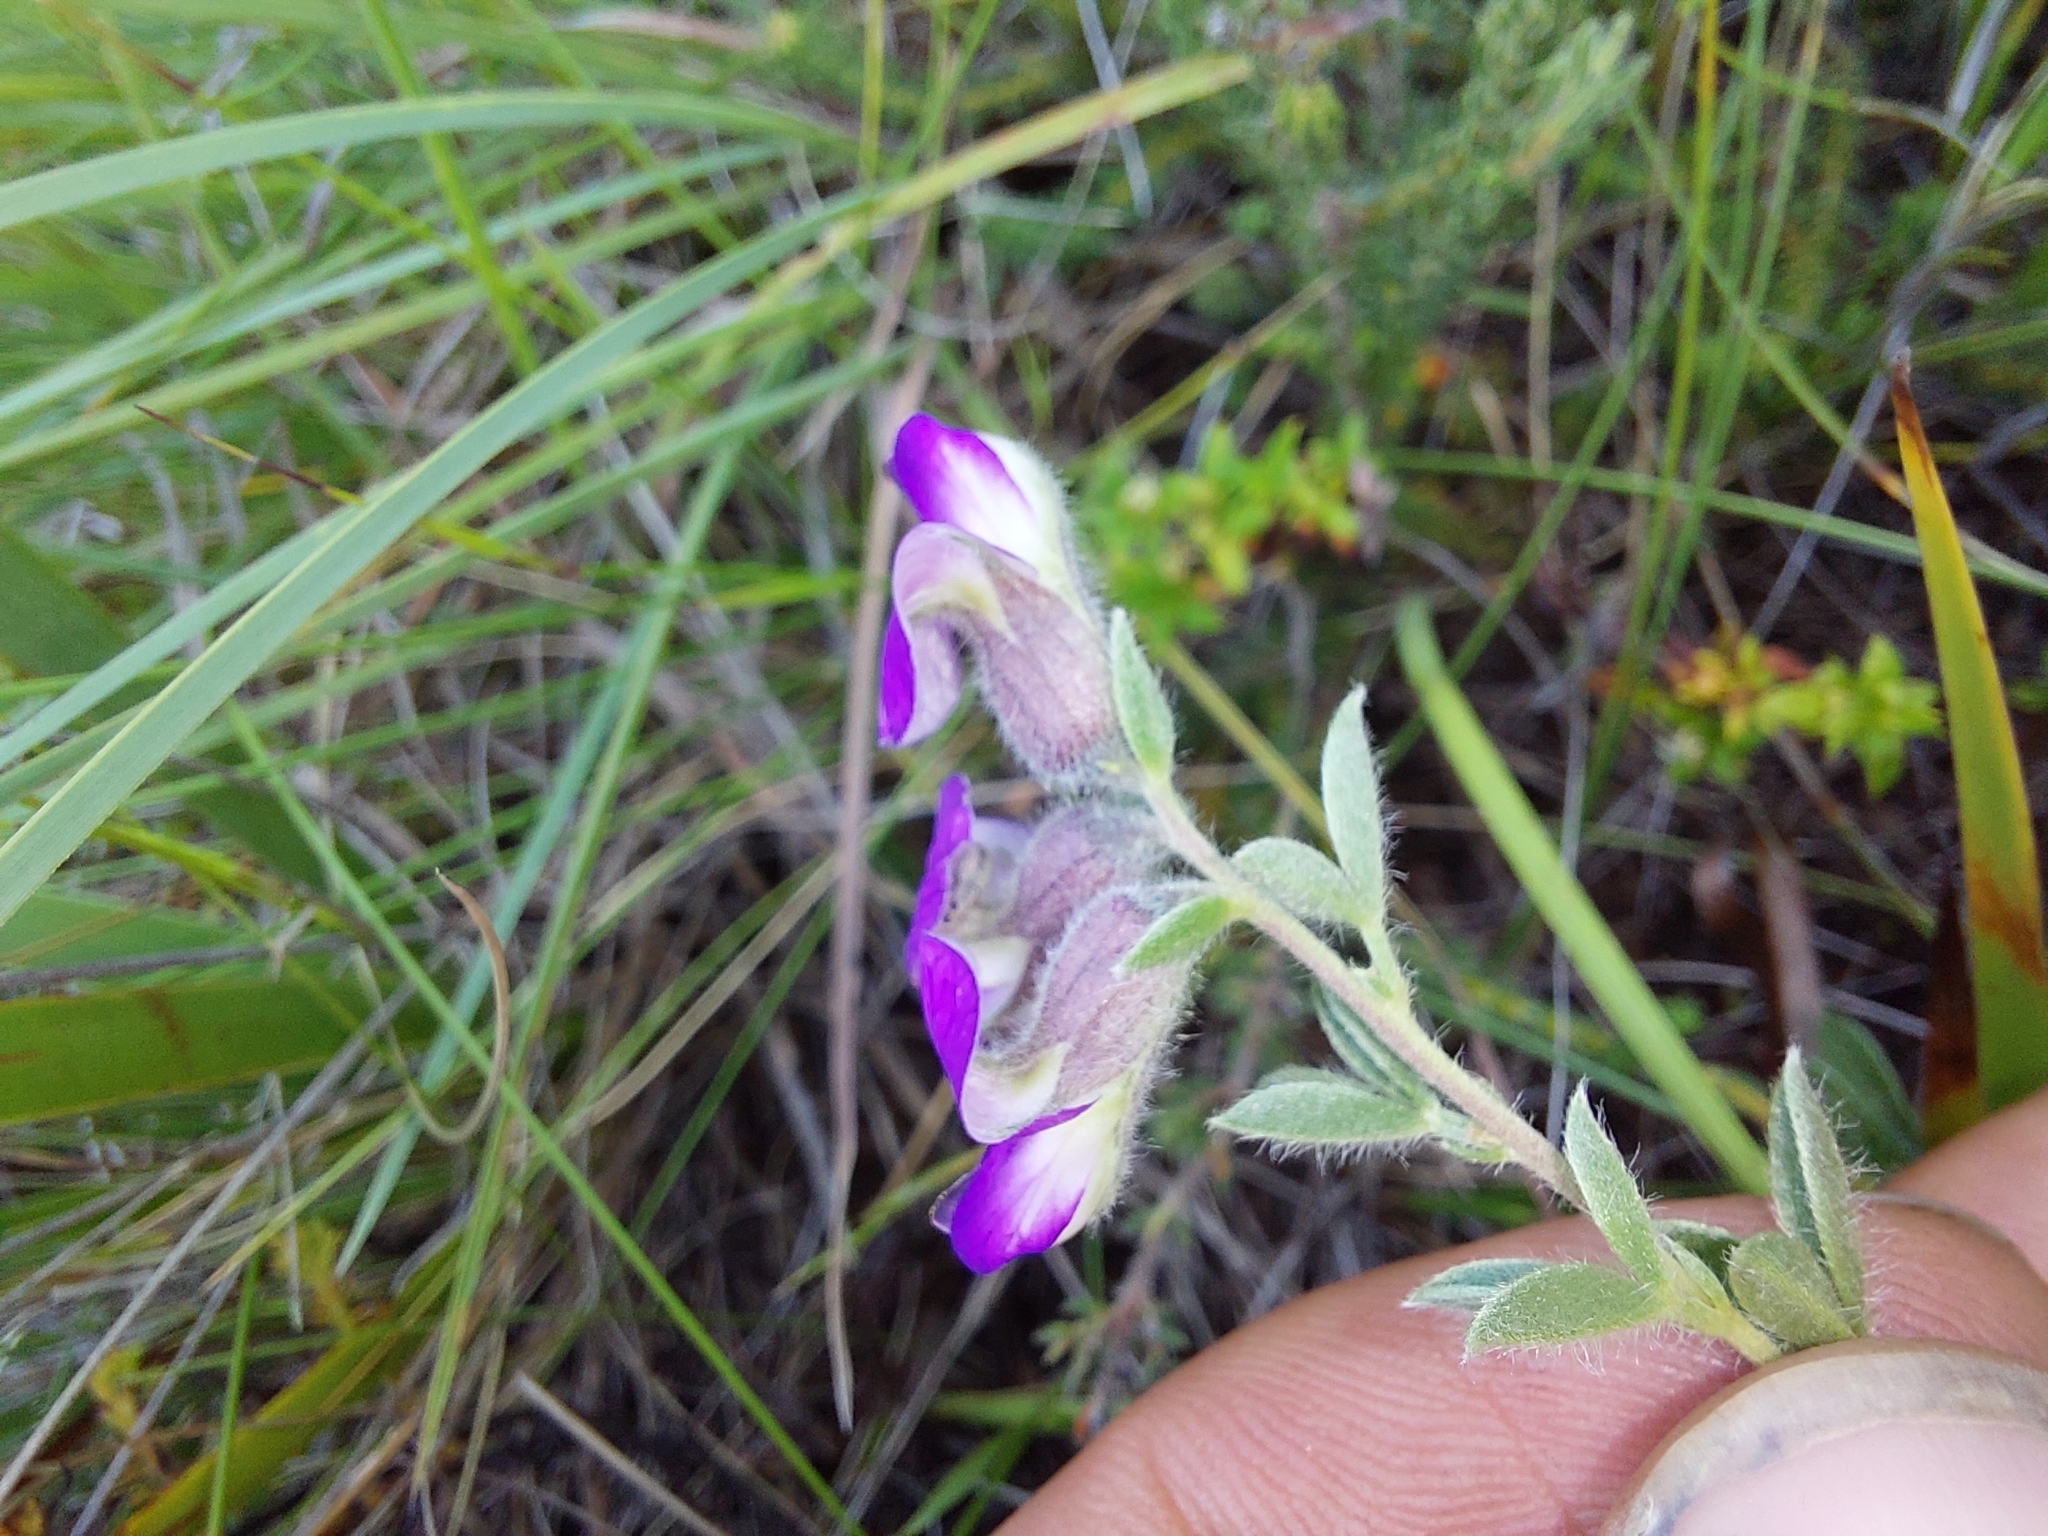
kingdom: Plantae
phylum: Tracheophyta
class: Magnoliopsida
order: Fabales
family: Fabaceae
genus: Lotononis
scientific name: Lotononis pulchella
